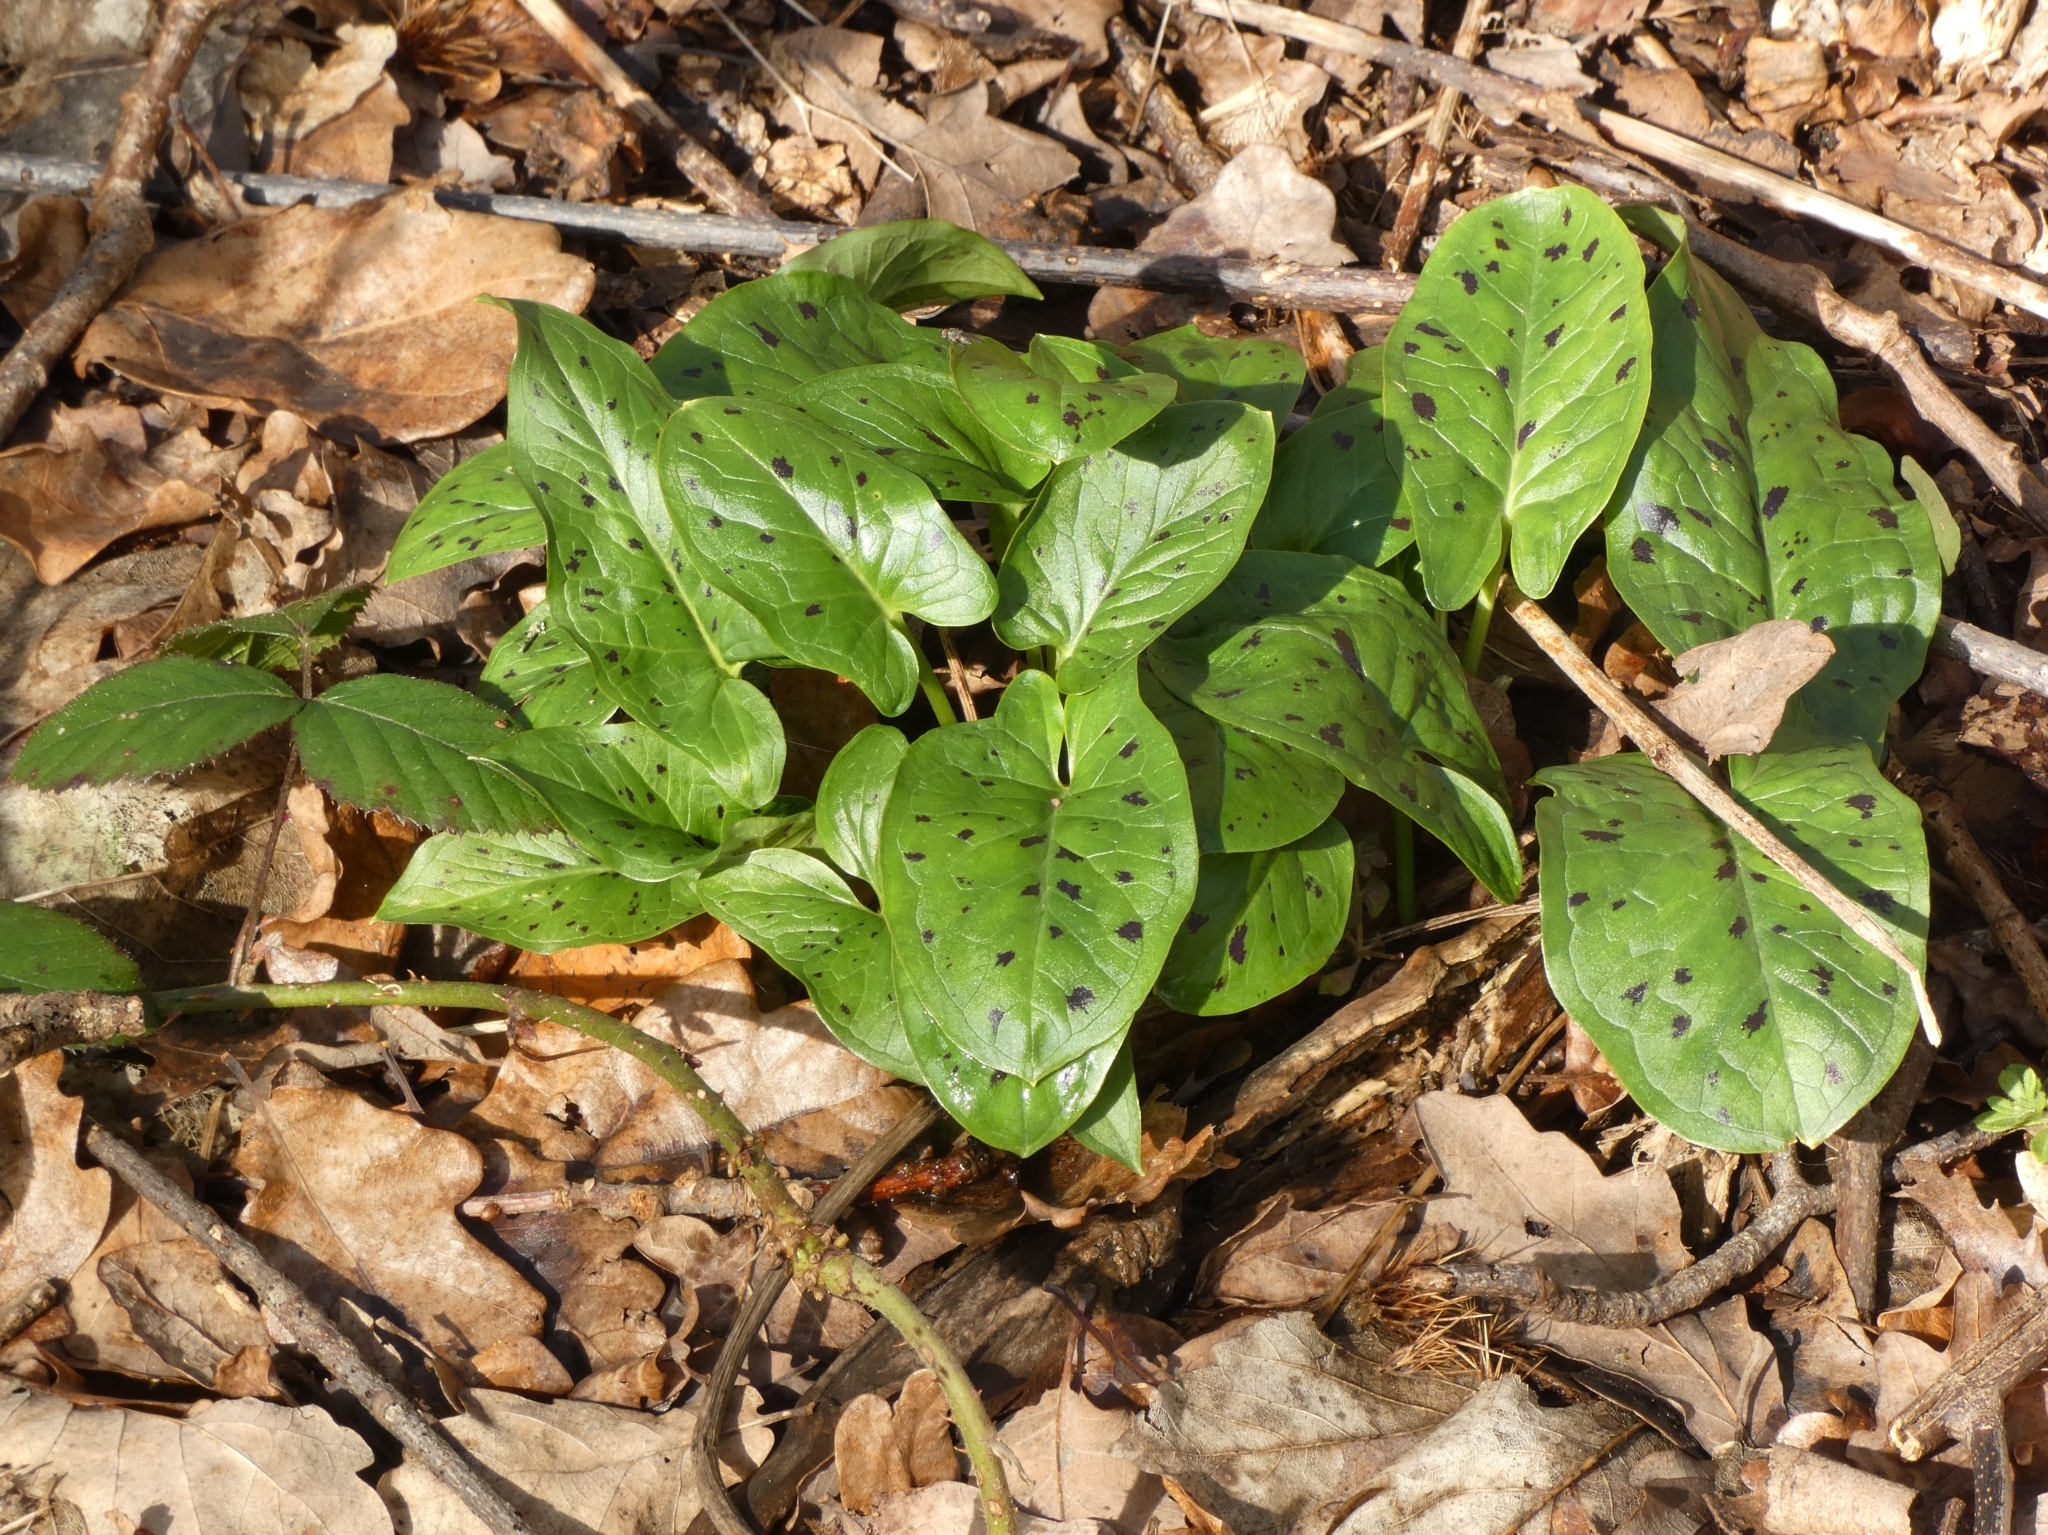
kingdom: Plantae
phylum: Tracheophyta
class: Liliopsida
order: Alismatales
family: Araceae
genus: Arum
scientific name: Arum maculatum
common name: Lords-and-ladies
